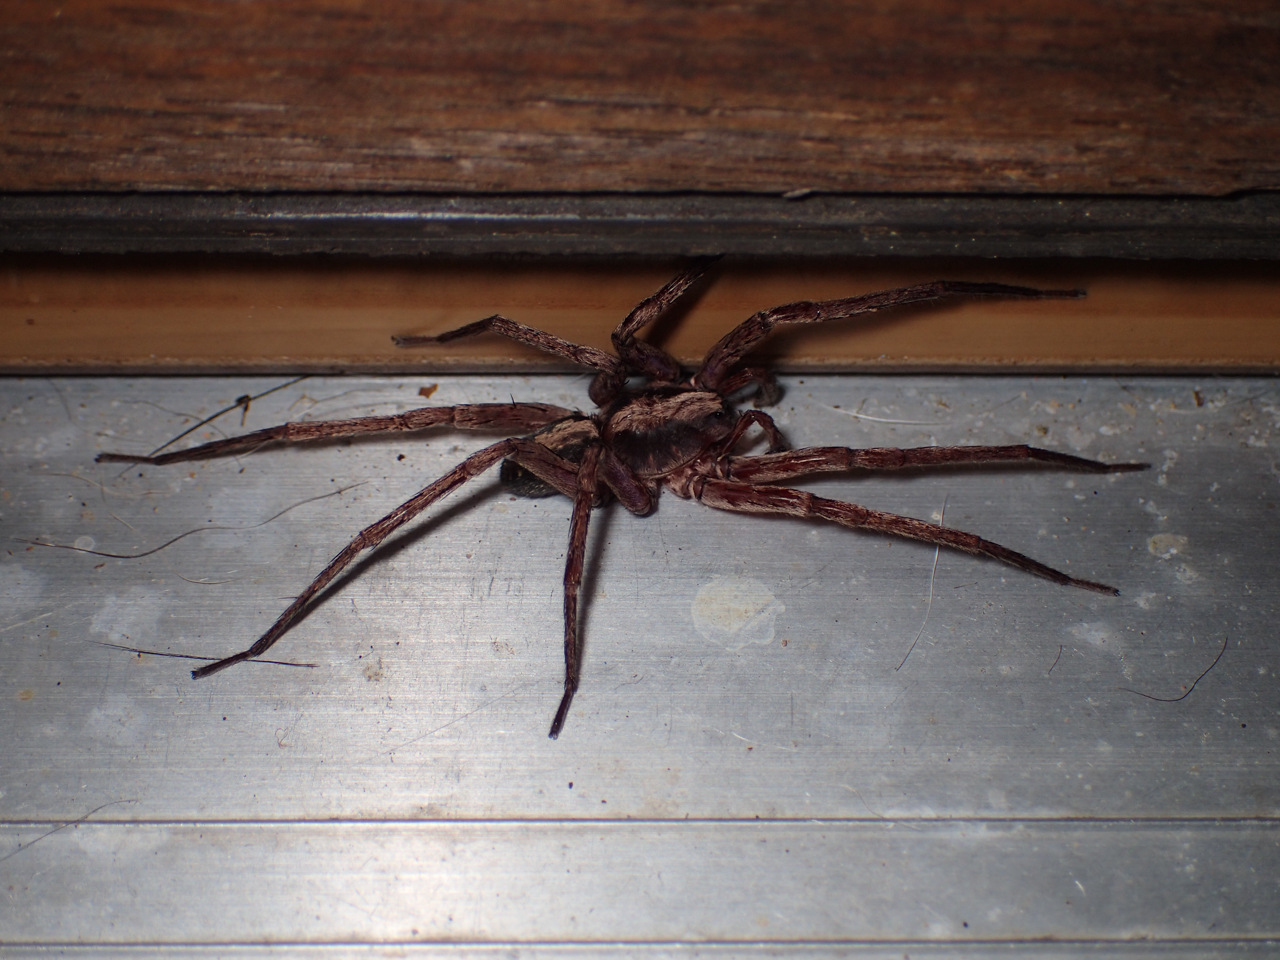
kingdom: Animalia
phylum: Arthropoda
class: Arachnida
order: Araneae
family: Ctenidae
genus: Ctenus
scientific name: Ctenus hibernalis
